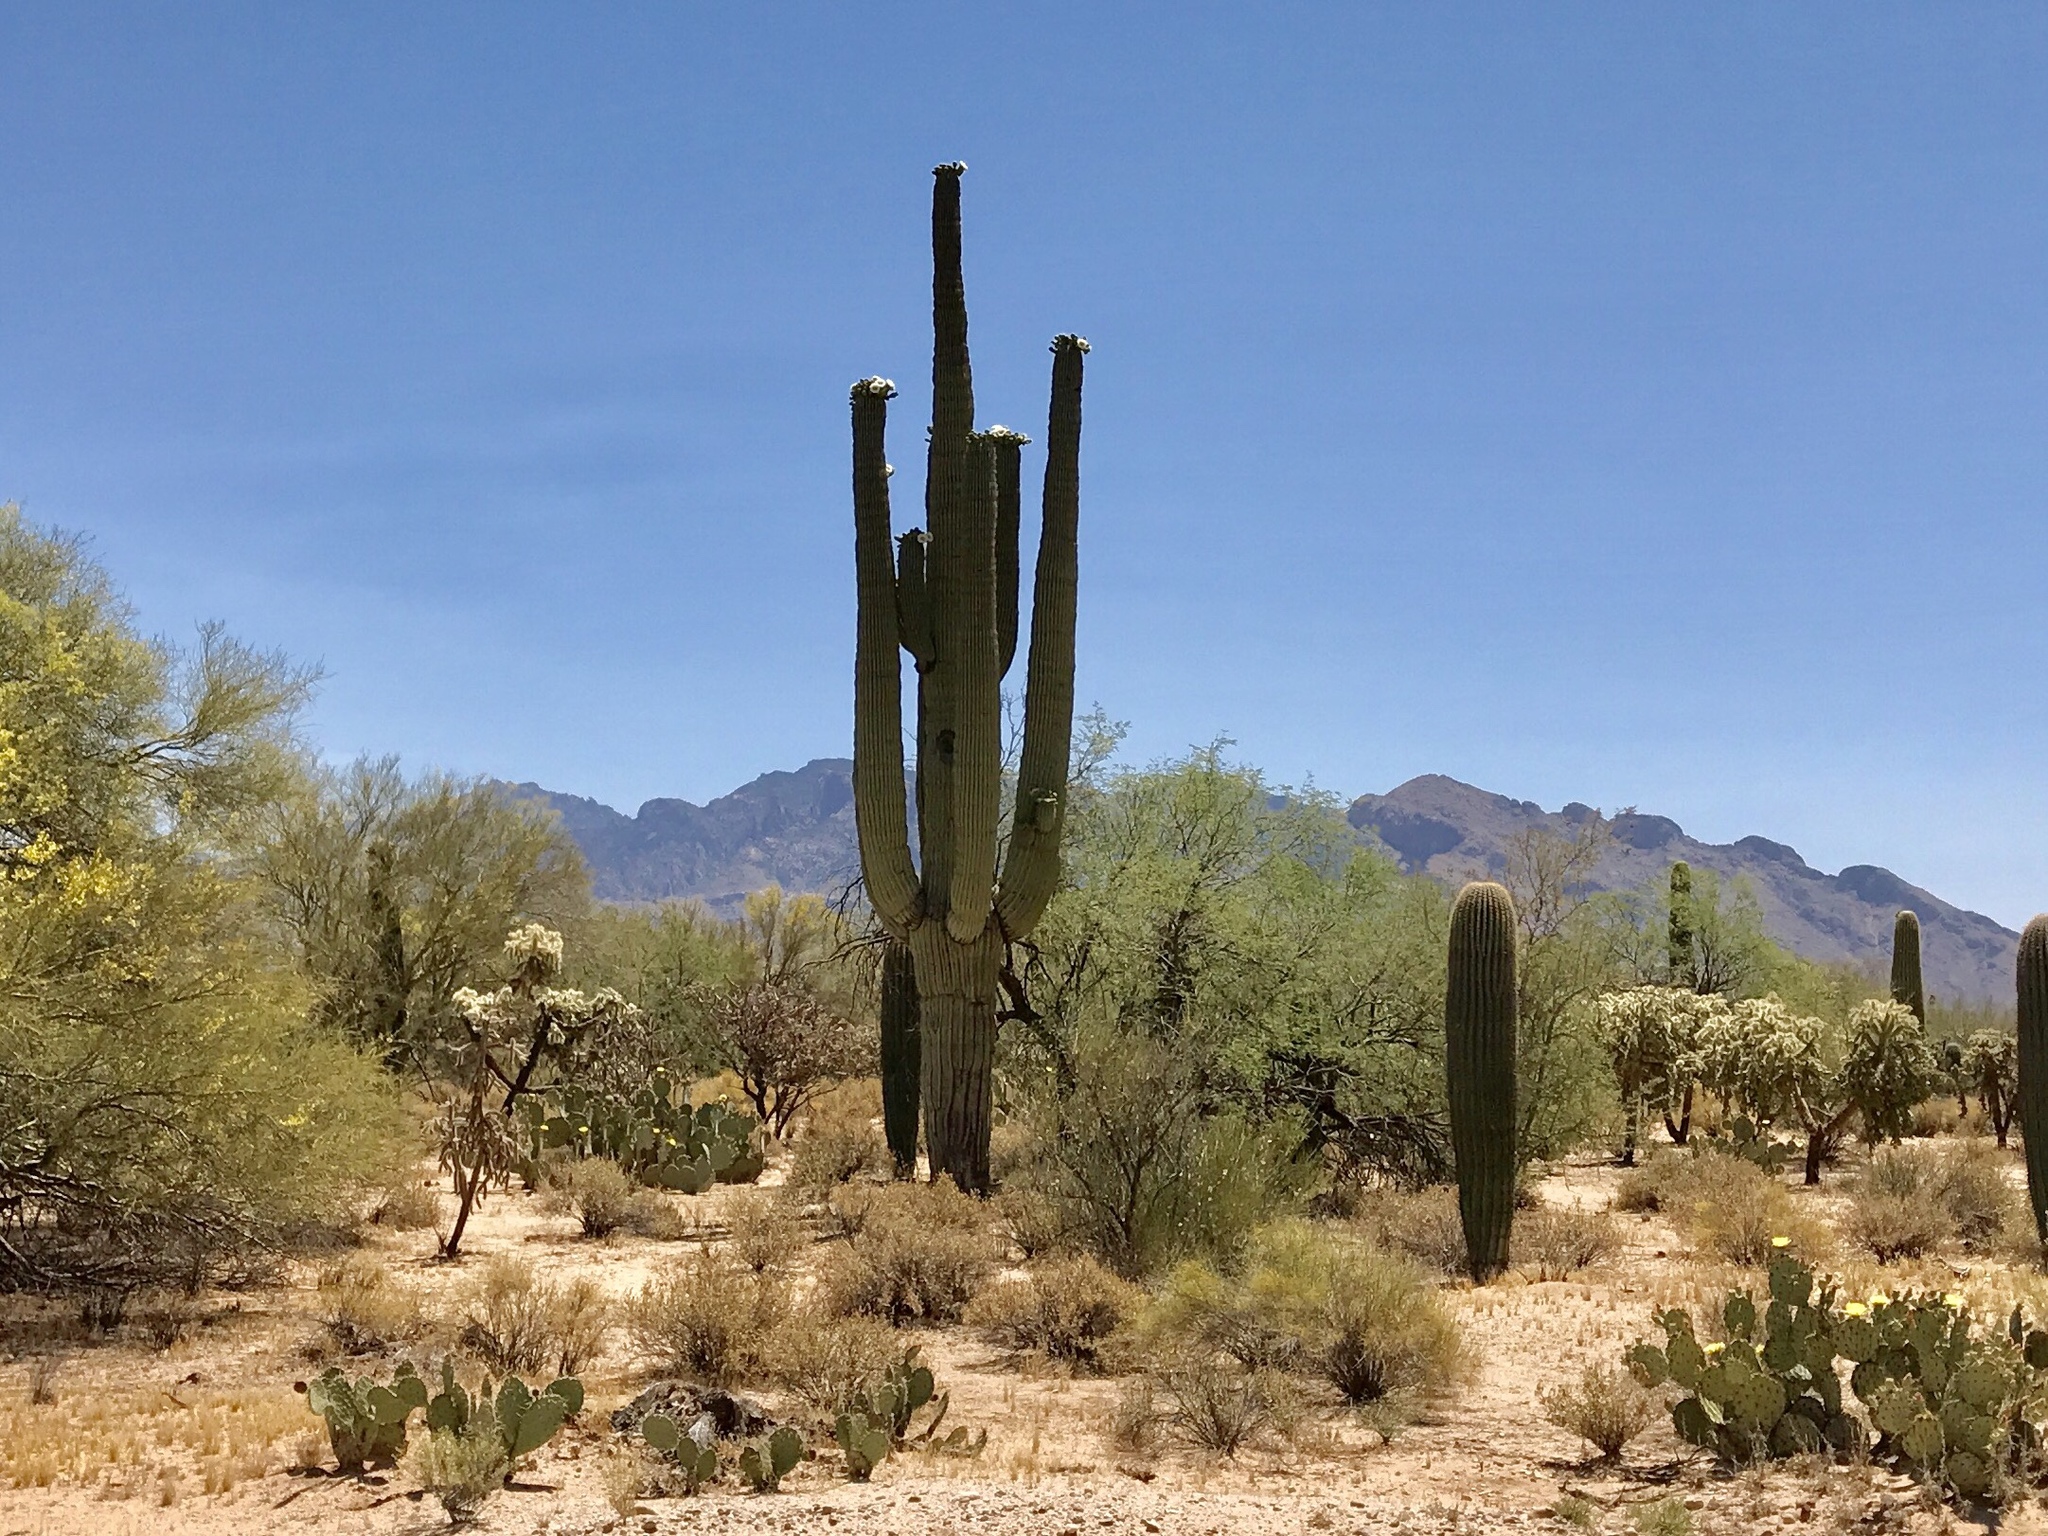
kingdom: Plantae
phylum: Tracheophyta
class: Magnoliopsida
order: Caryophyllales
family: Cactaceae
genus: Carnegiea
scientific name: Carnegiea gigantea
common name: Saguaro
